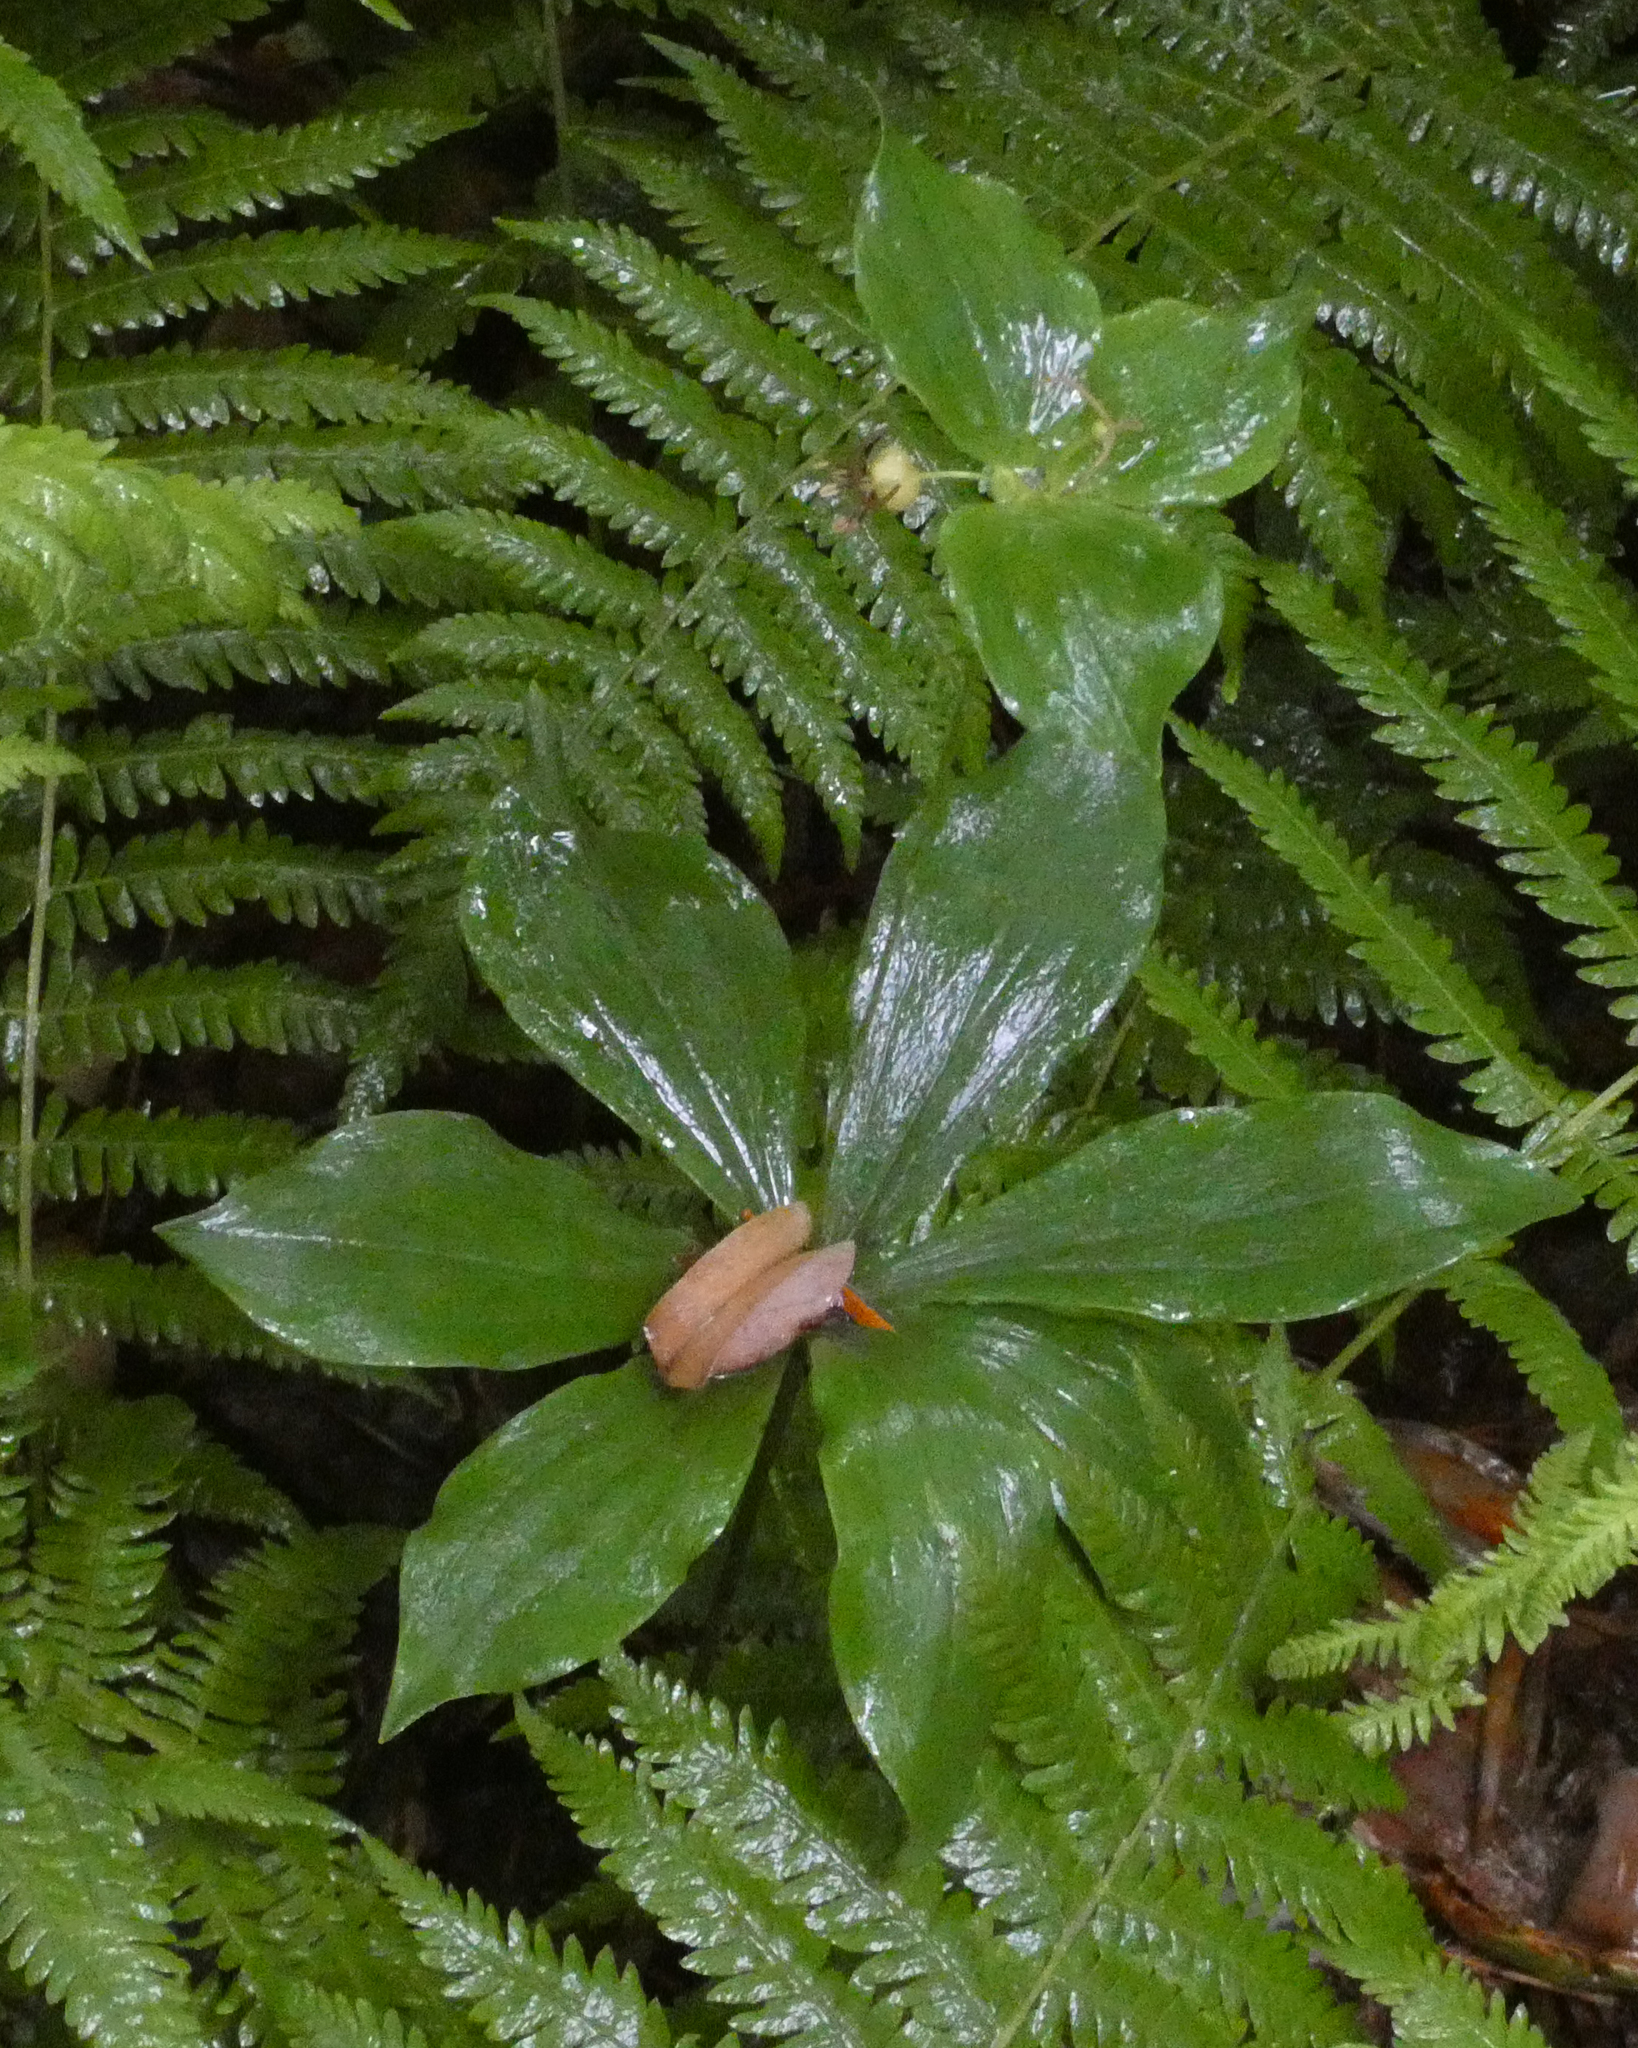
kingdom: Plantae
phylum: Tracheophyta
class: Liliopsida
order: Liliales
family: Liliaceae
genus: Medeola
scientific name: Medeola virginiana
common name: Indian cucumber-root
